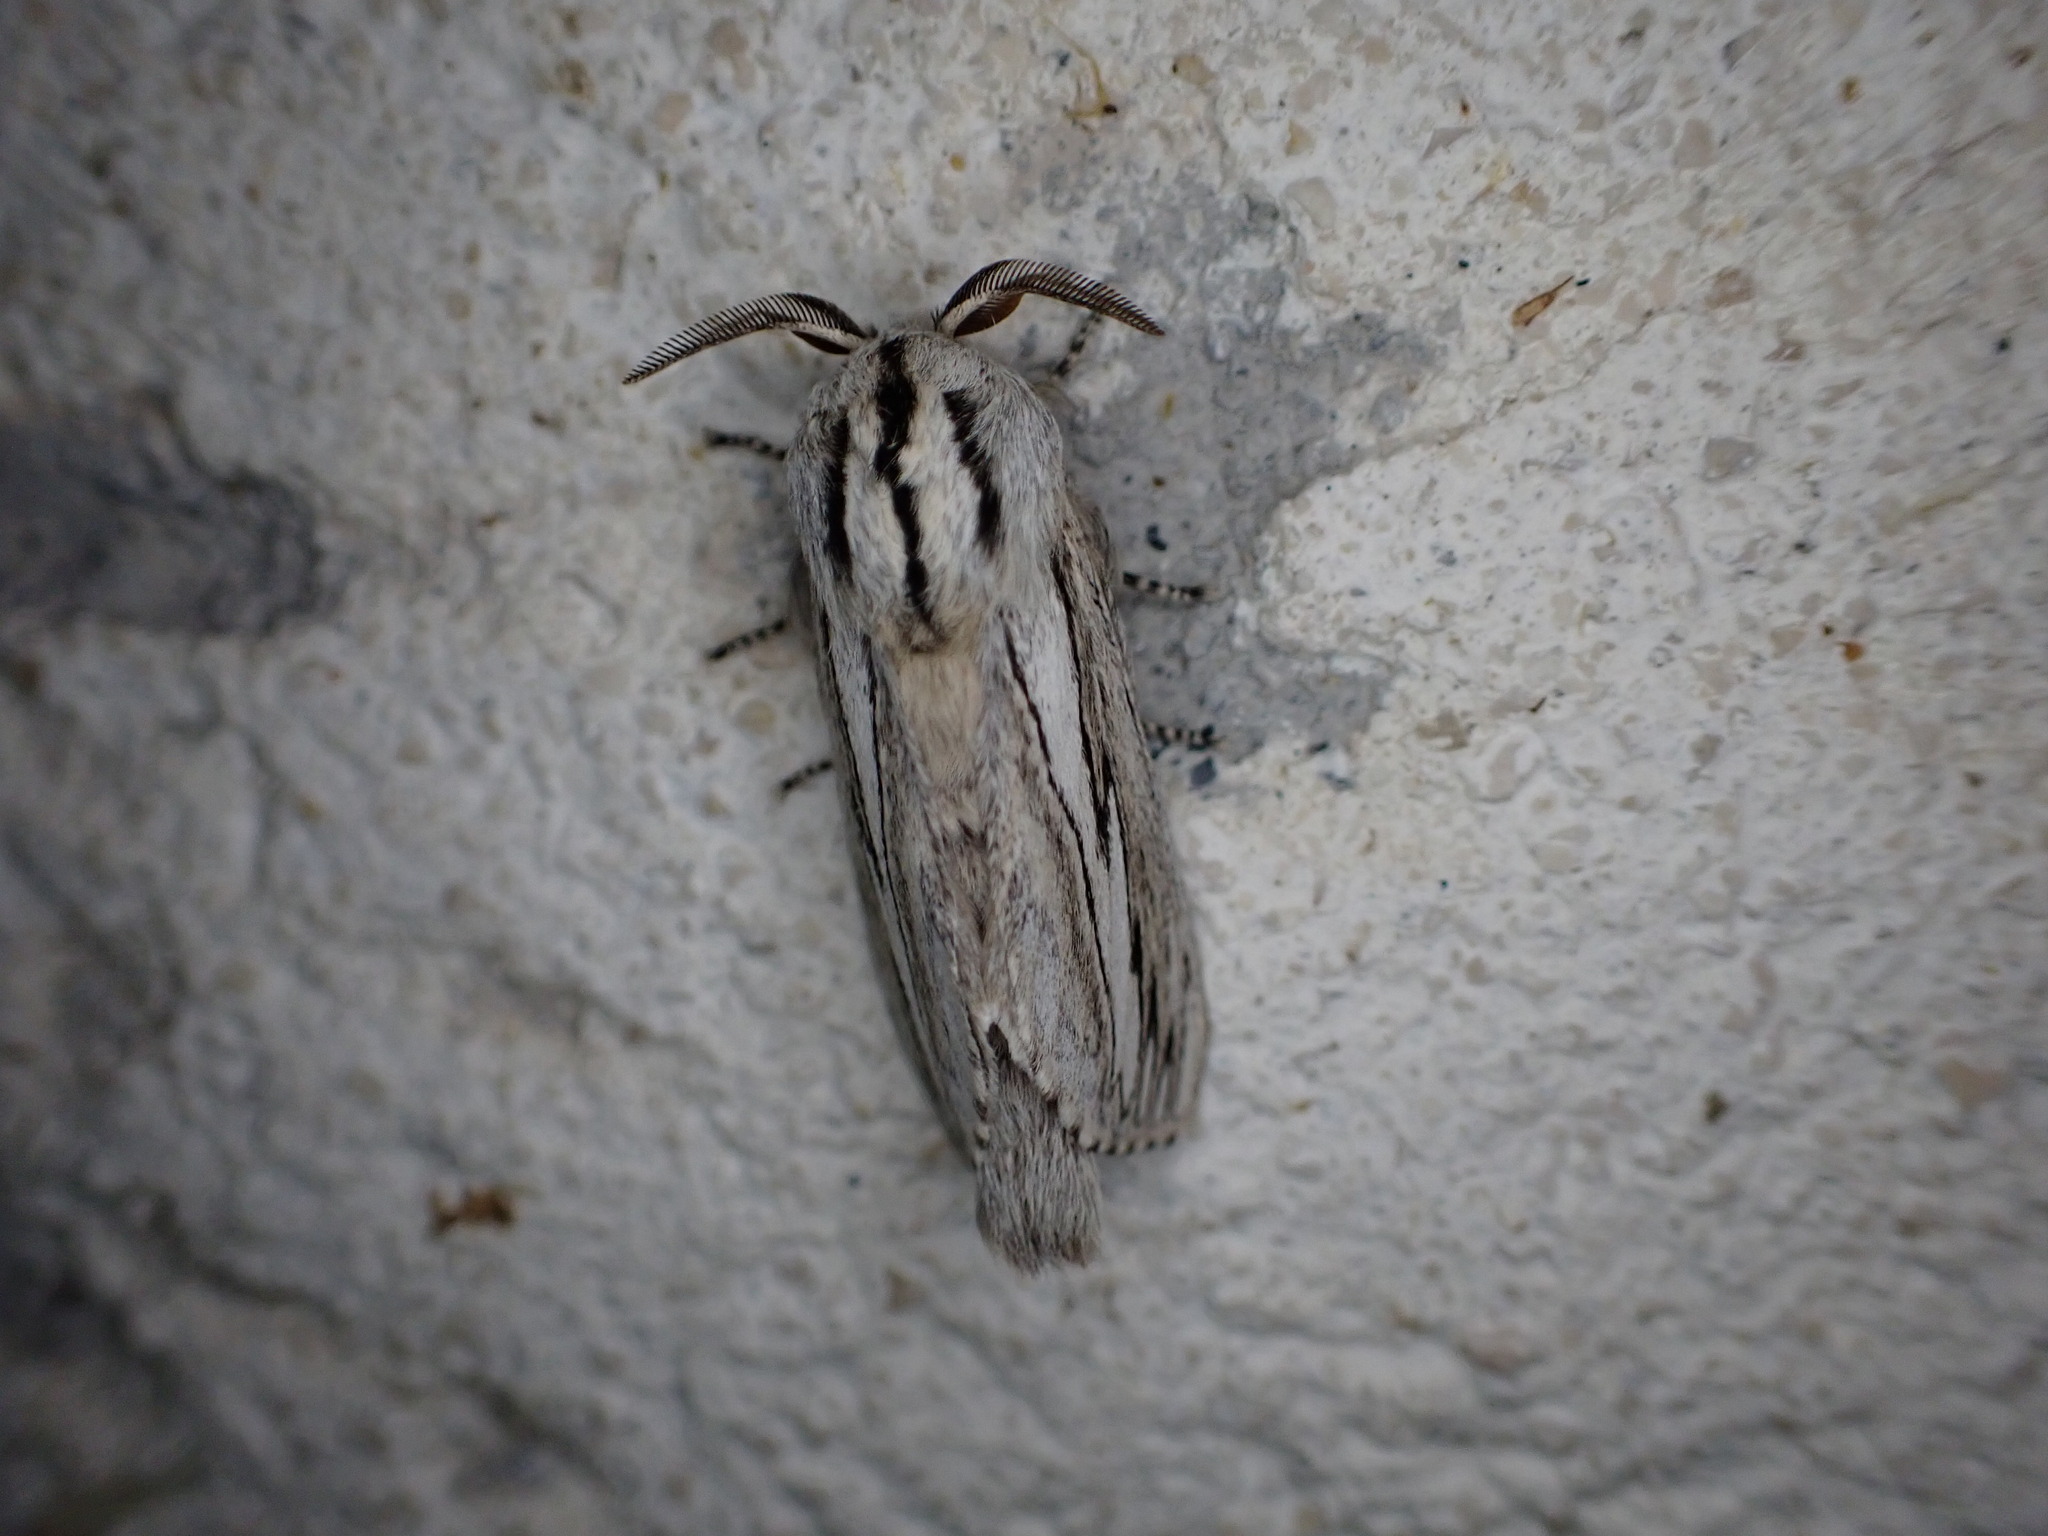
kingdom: Animalia
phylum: Arthropoda
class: Insecta
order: Lepidoptera
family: Lasiocampidae
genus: Gufria
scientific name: Gufria limosa
